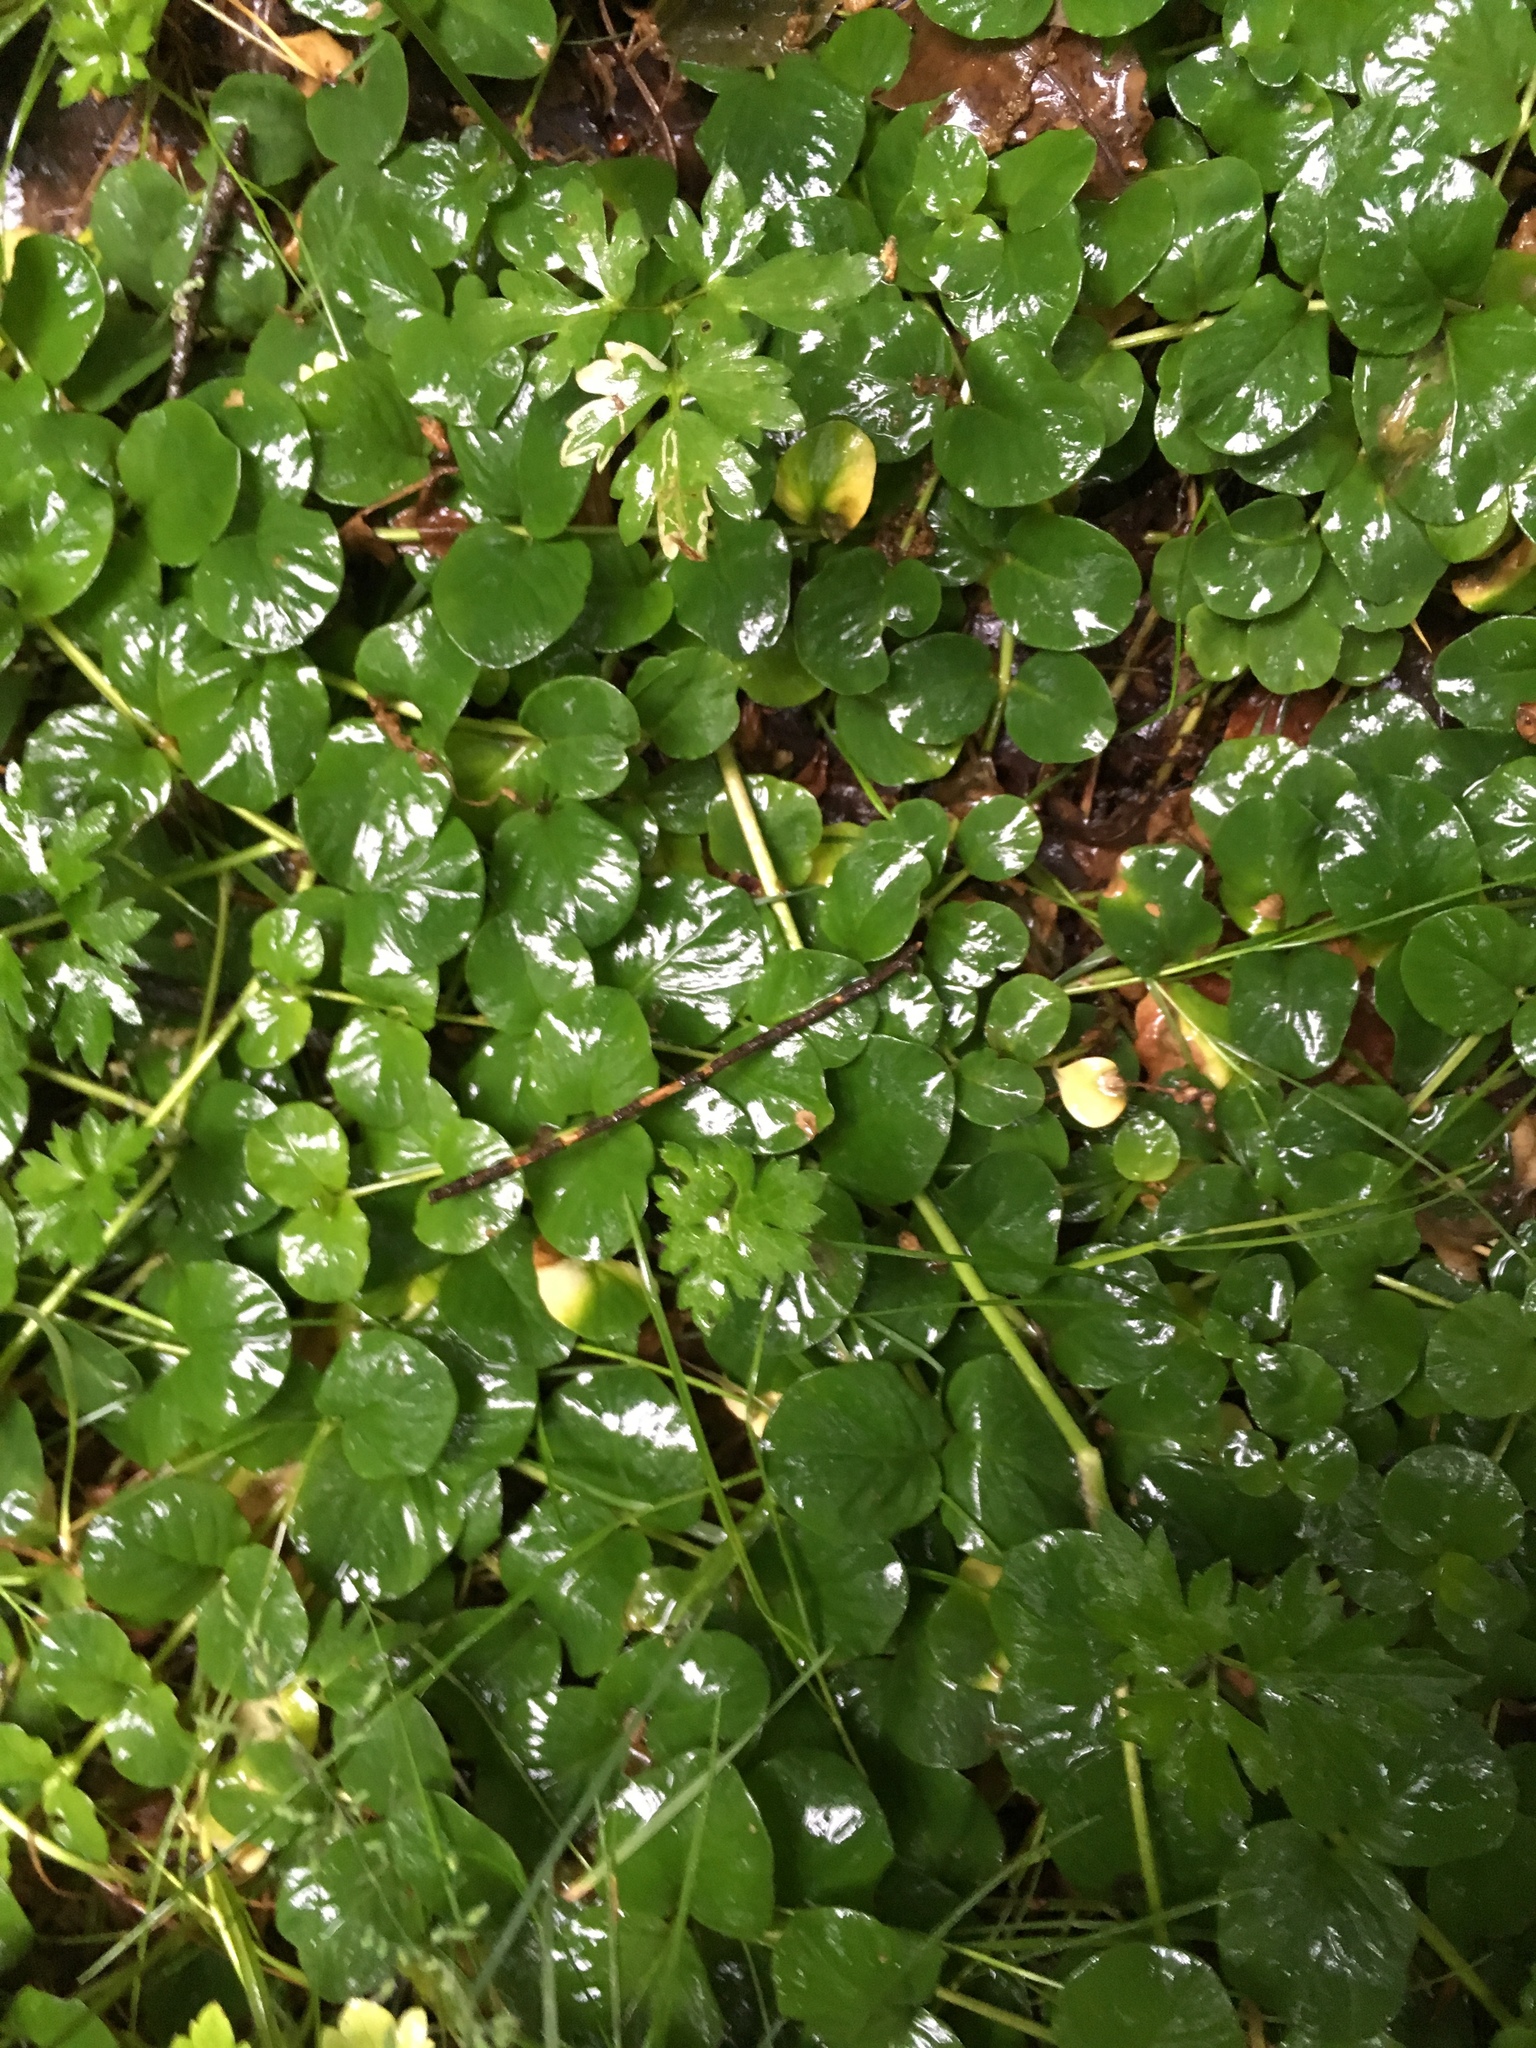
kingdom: Plantae
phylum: Tracheophyta
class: Magnoliopsida
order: Ericales
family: Primulaceae
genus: Lysimachia
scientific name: Lysimachia nummularia
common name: Moneywort
